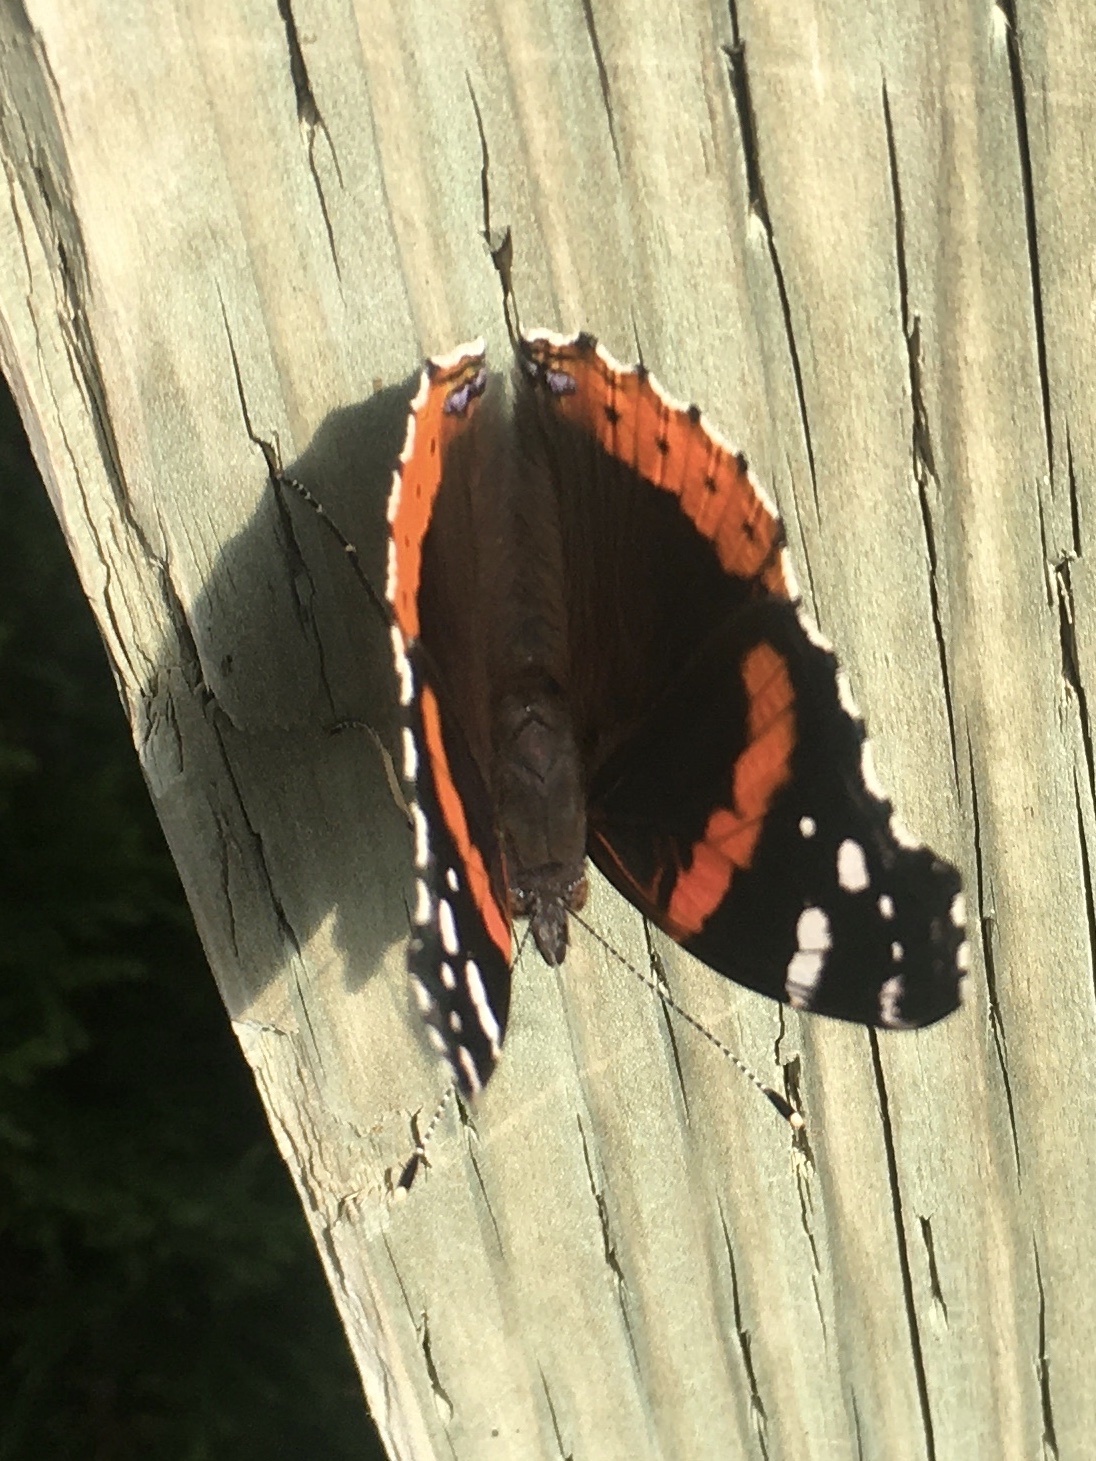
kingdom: Animalia
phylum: Arthropoda
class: Insecta
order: Lepidoptera
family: Nymphalidae
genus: Vanessa
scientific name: Vanessa atalanta
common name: Red admiral
